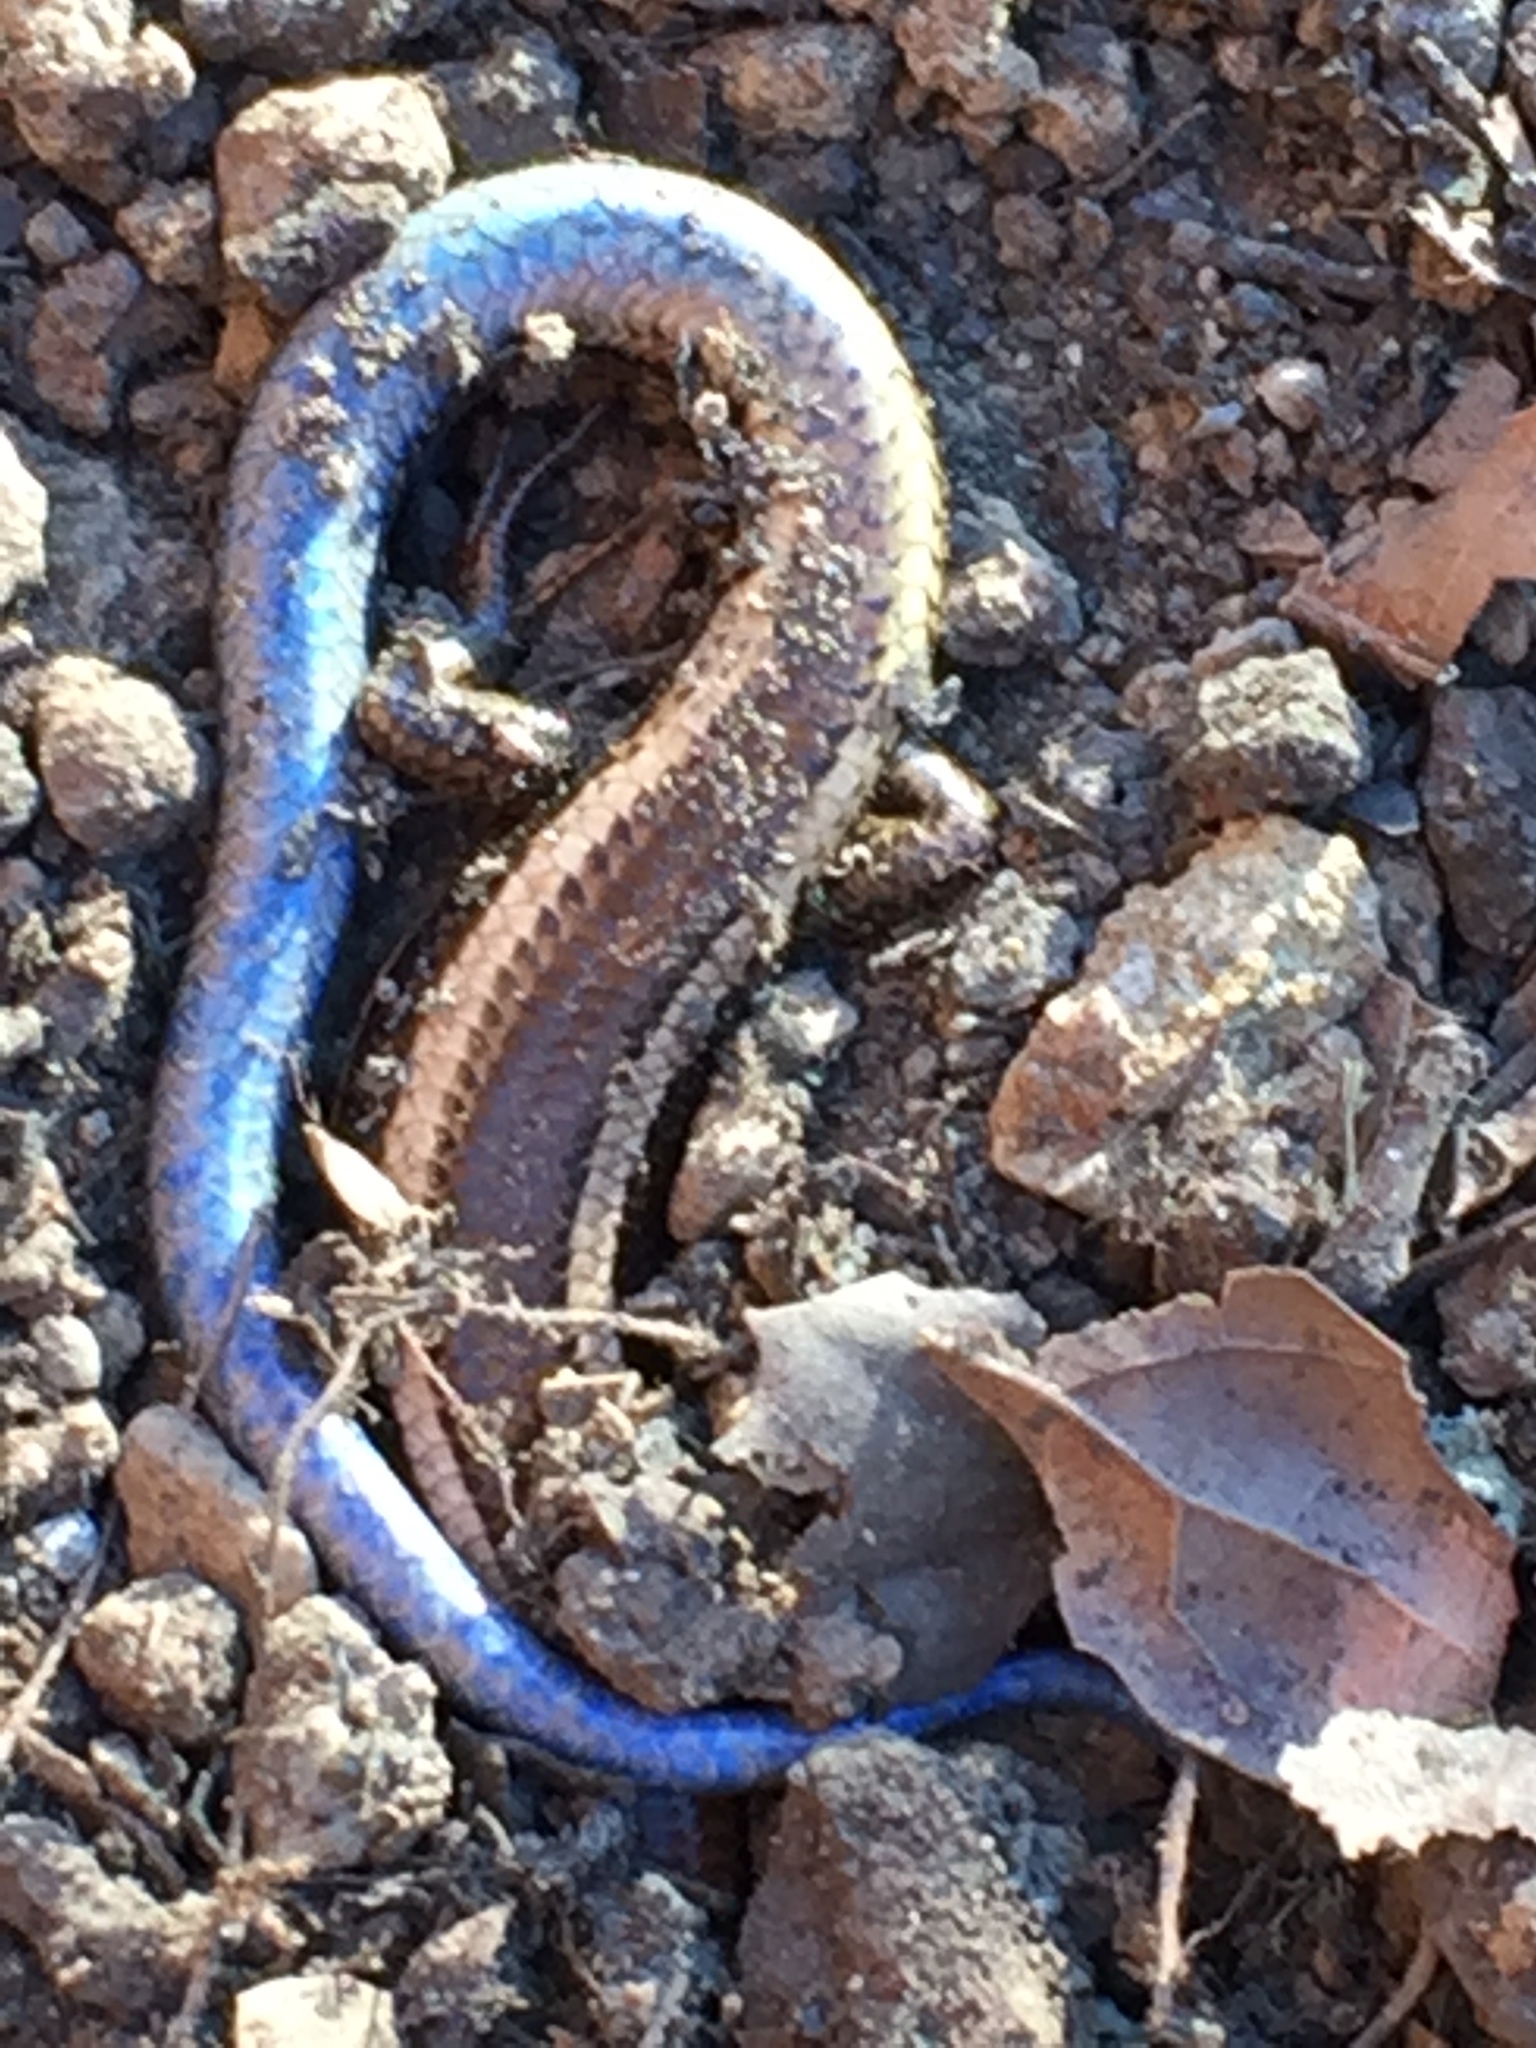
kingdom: Animalia
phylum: Chordata
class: Squamata
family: Scincidae
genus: Plestiodon
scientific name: Plestiodon skiltonianus
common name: Coronado island skink [interparietalis]
